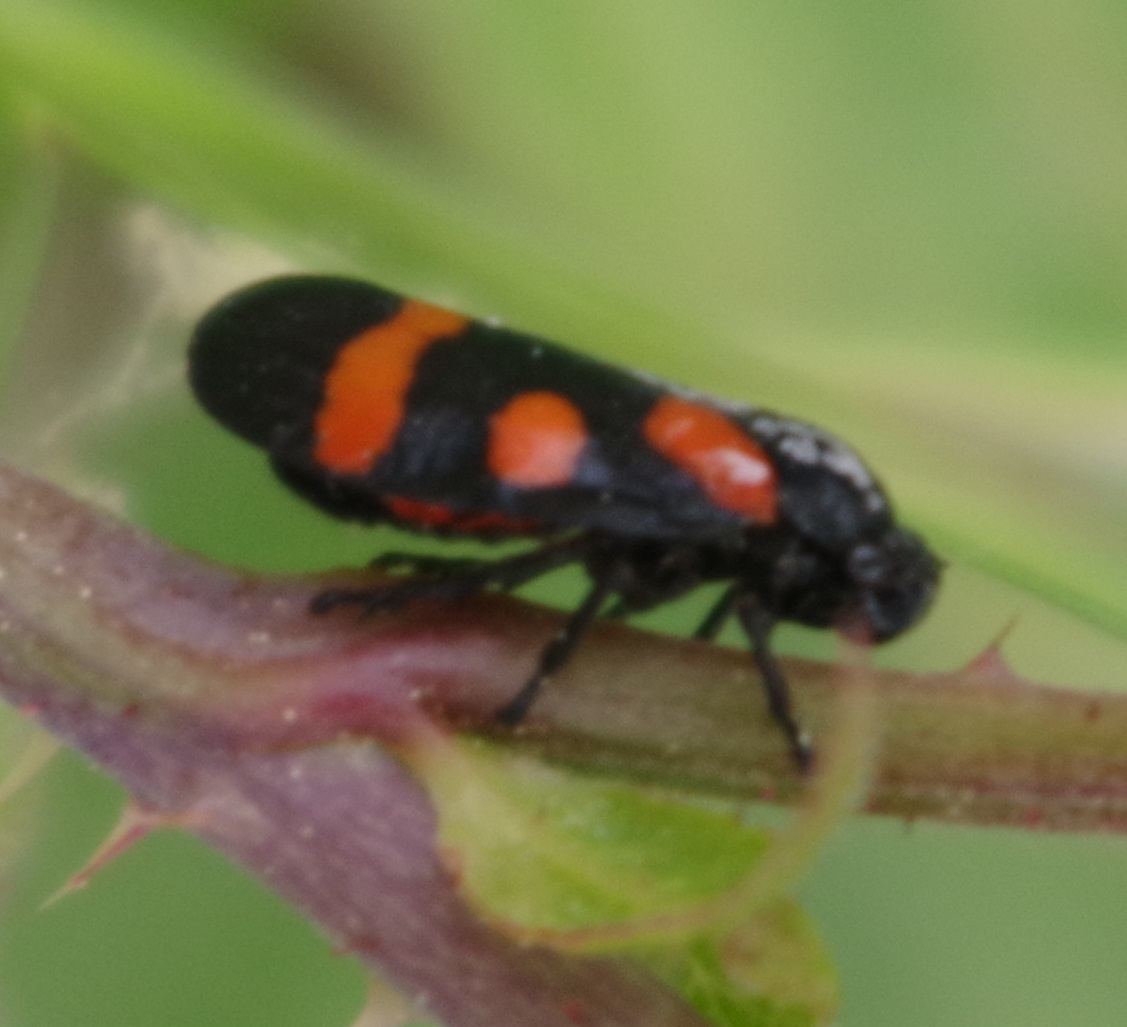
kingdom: Animalia
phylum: Arthropoda
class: Insecta
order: Hemiptera
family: Cercopidae
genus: Cercopis
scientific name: Cercopis sanguinolenta
